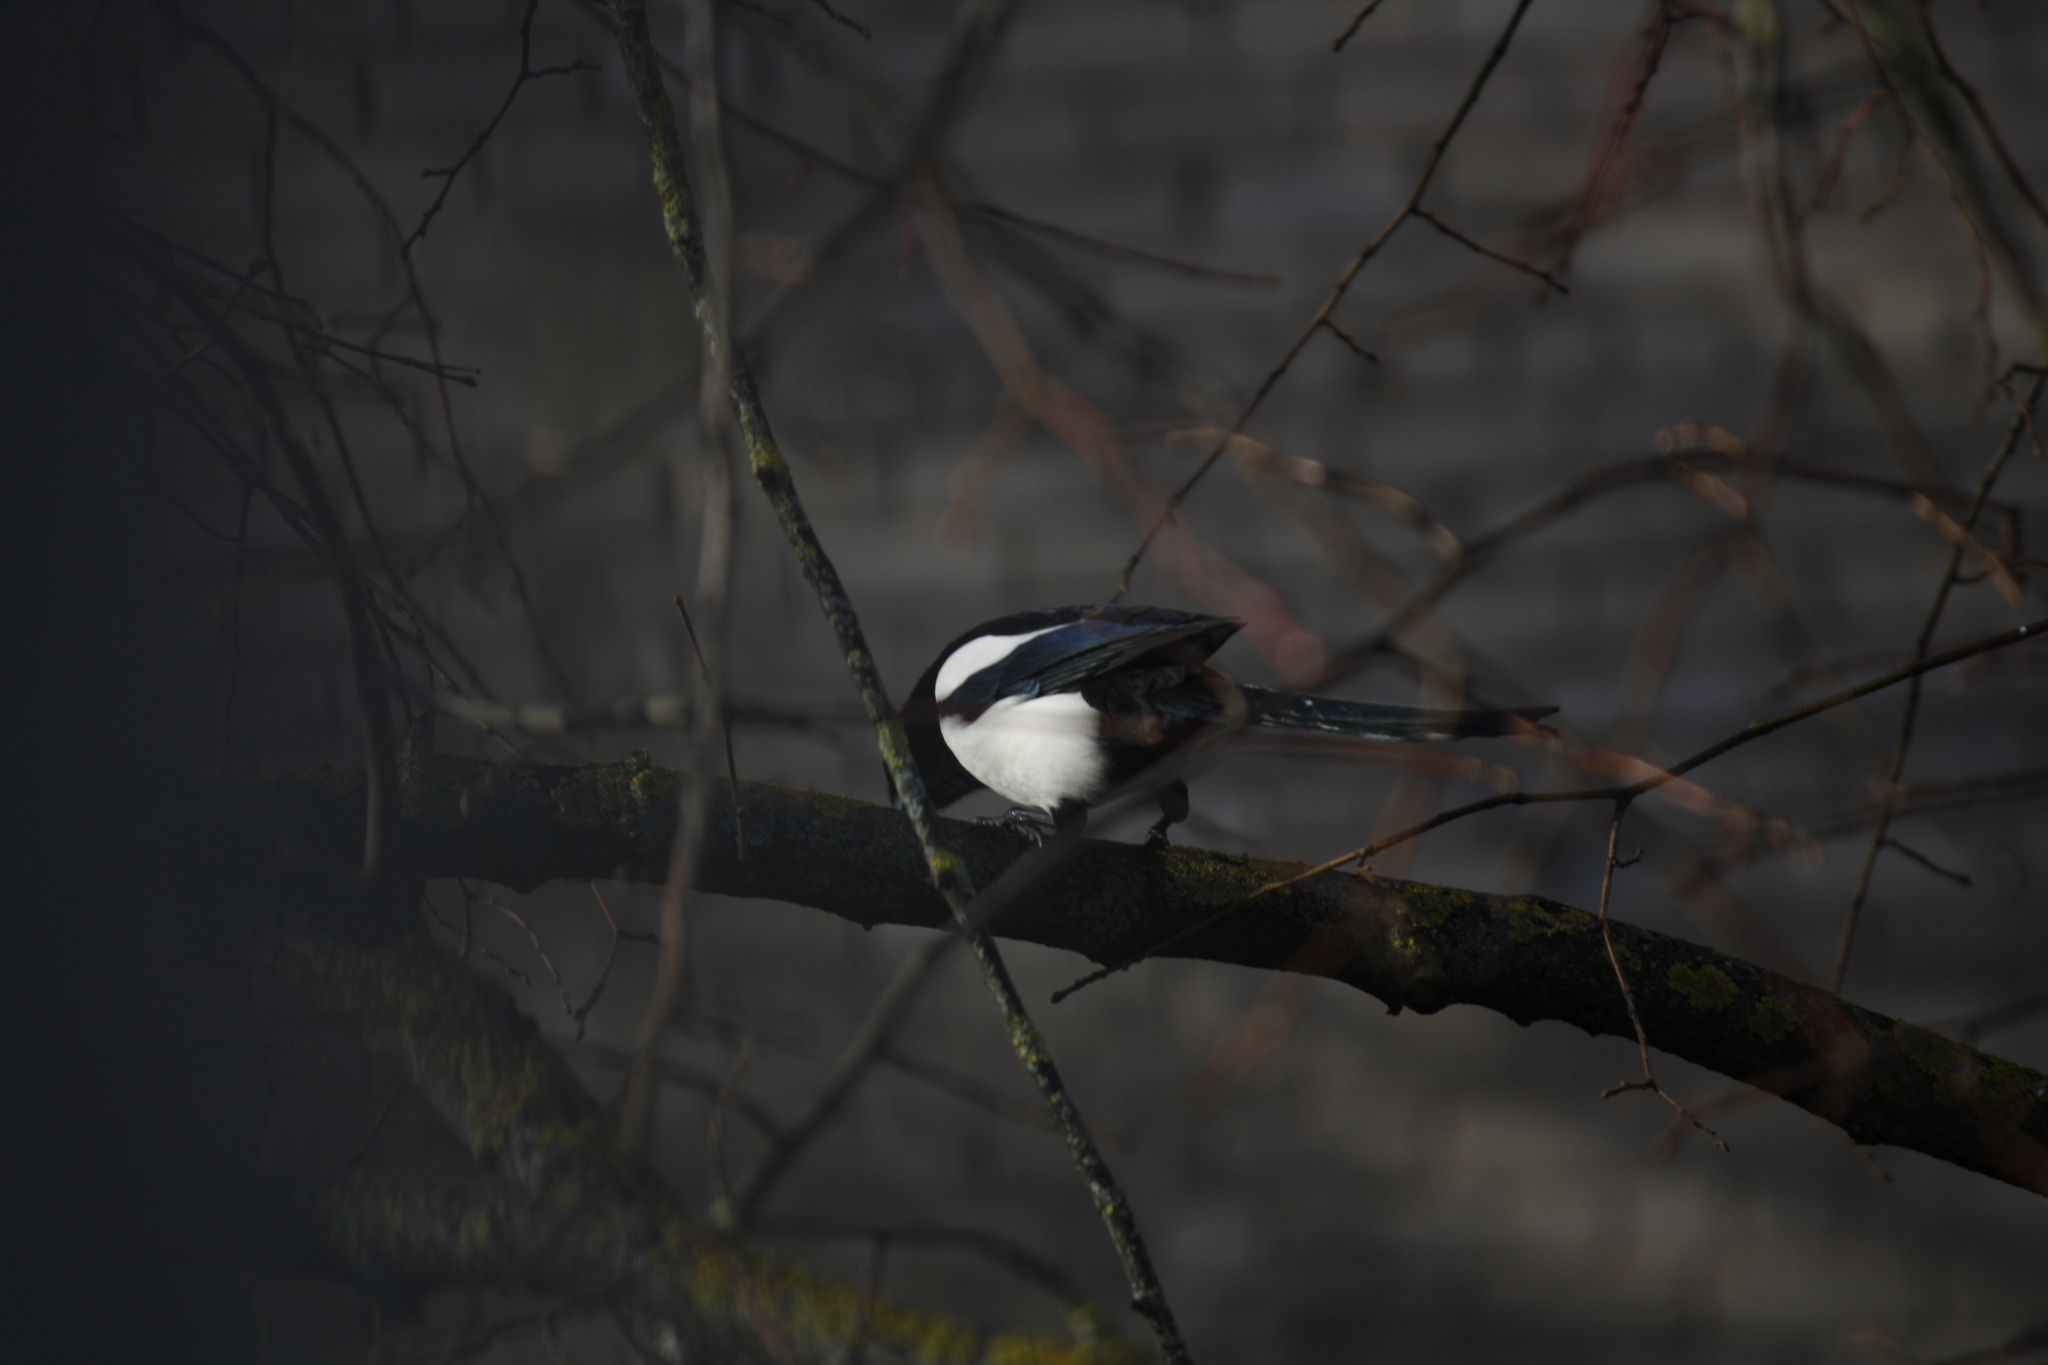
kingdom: Animalia
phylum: Chordata
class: Aves
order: Passeriformes
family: Corvidae
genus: Pica
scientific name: Pica pica
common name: Eurasian magpie
